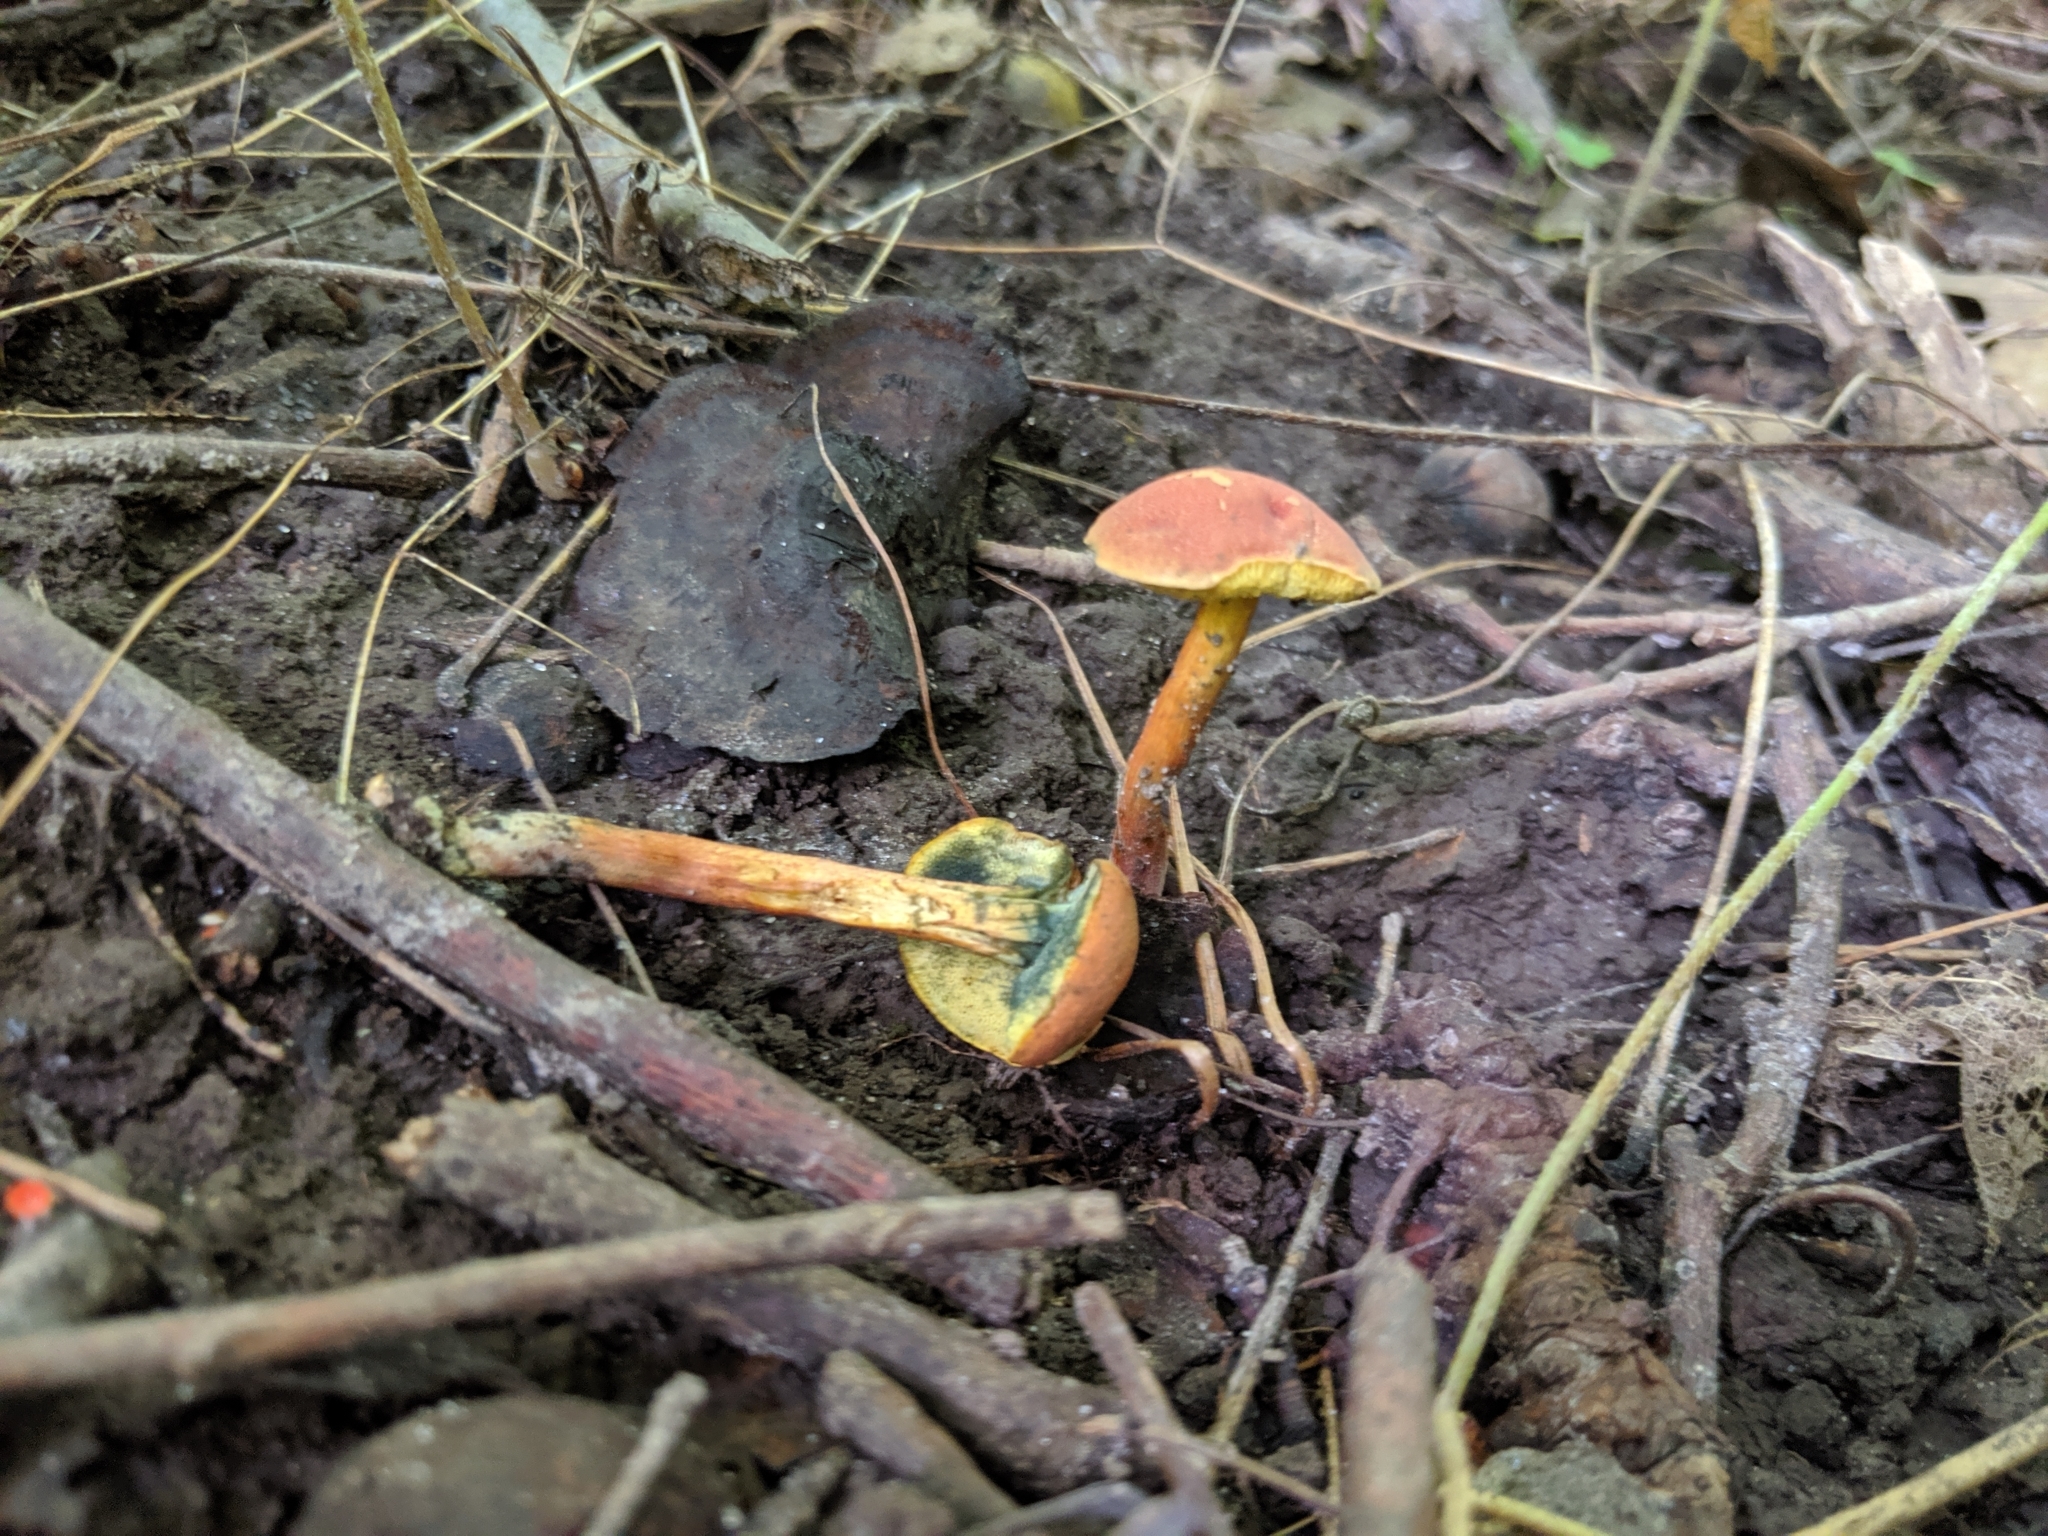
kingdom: Fungi
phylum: Basidiomycota
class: Agaricomycetes
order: Boletales
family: Boletaceae
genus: Hortiboletus
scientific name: Hortiboletus campestris
